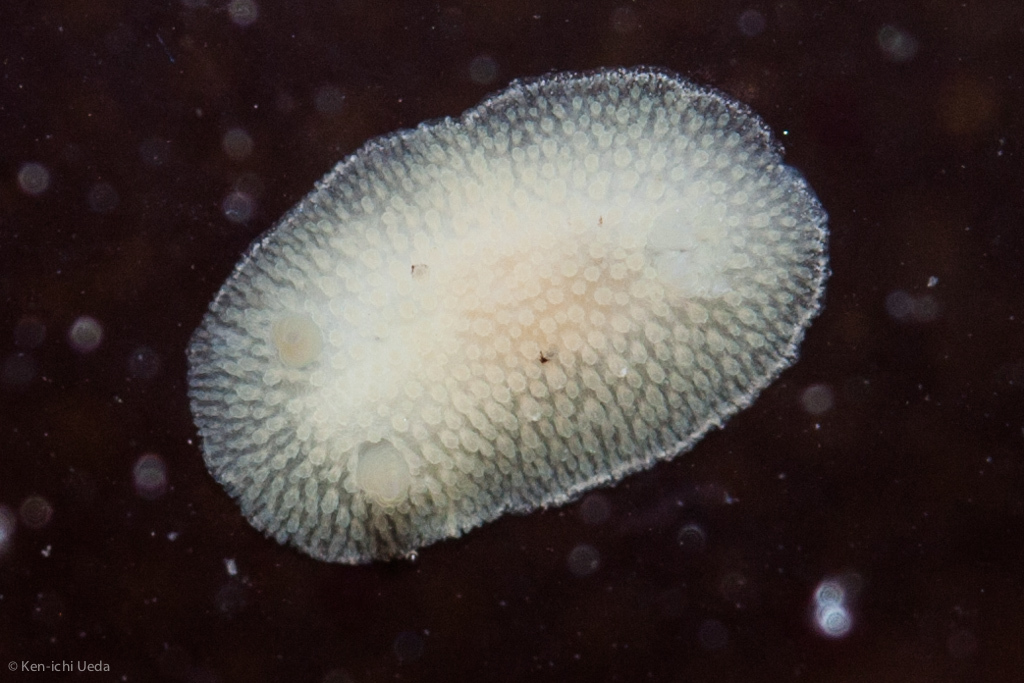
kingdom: Animalia
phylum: Mollusca
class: Gastropoda
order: Nudibranchia
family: Discodorididae
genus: Diaulula
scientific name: Diaulula sandiegensis
